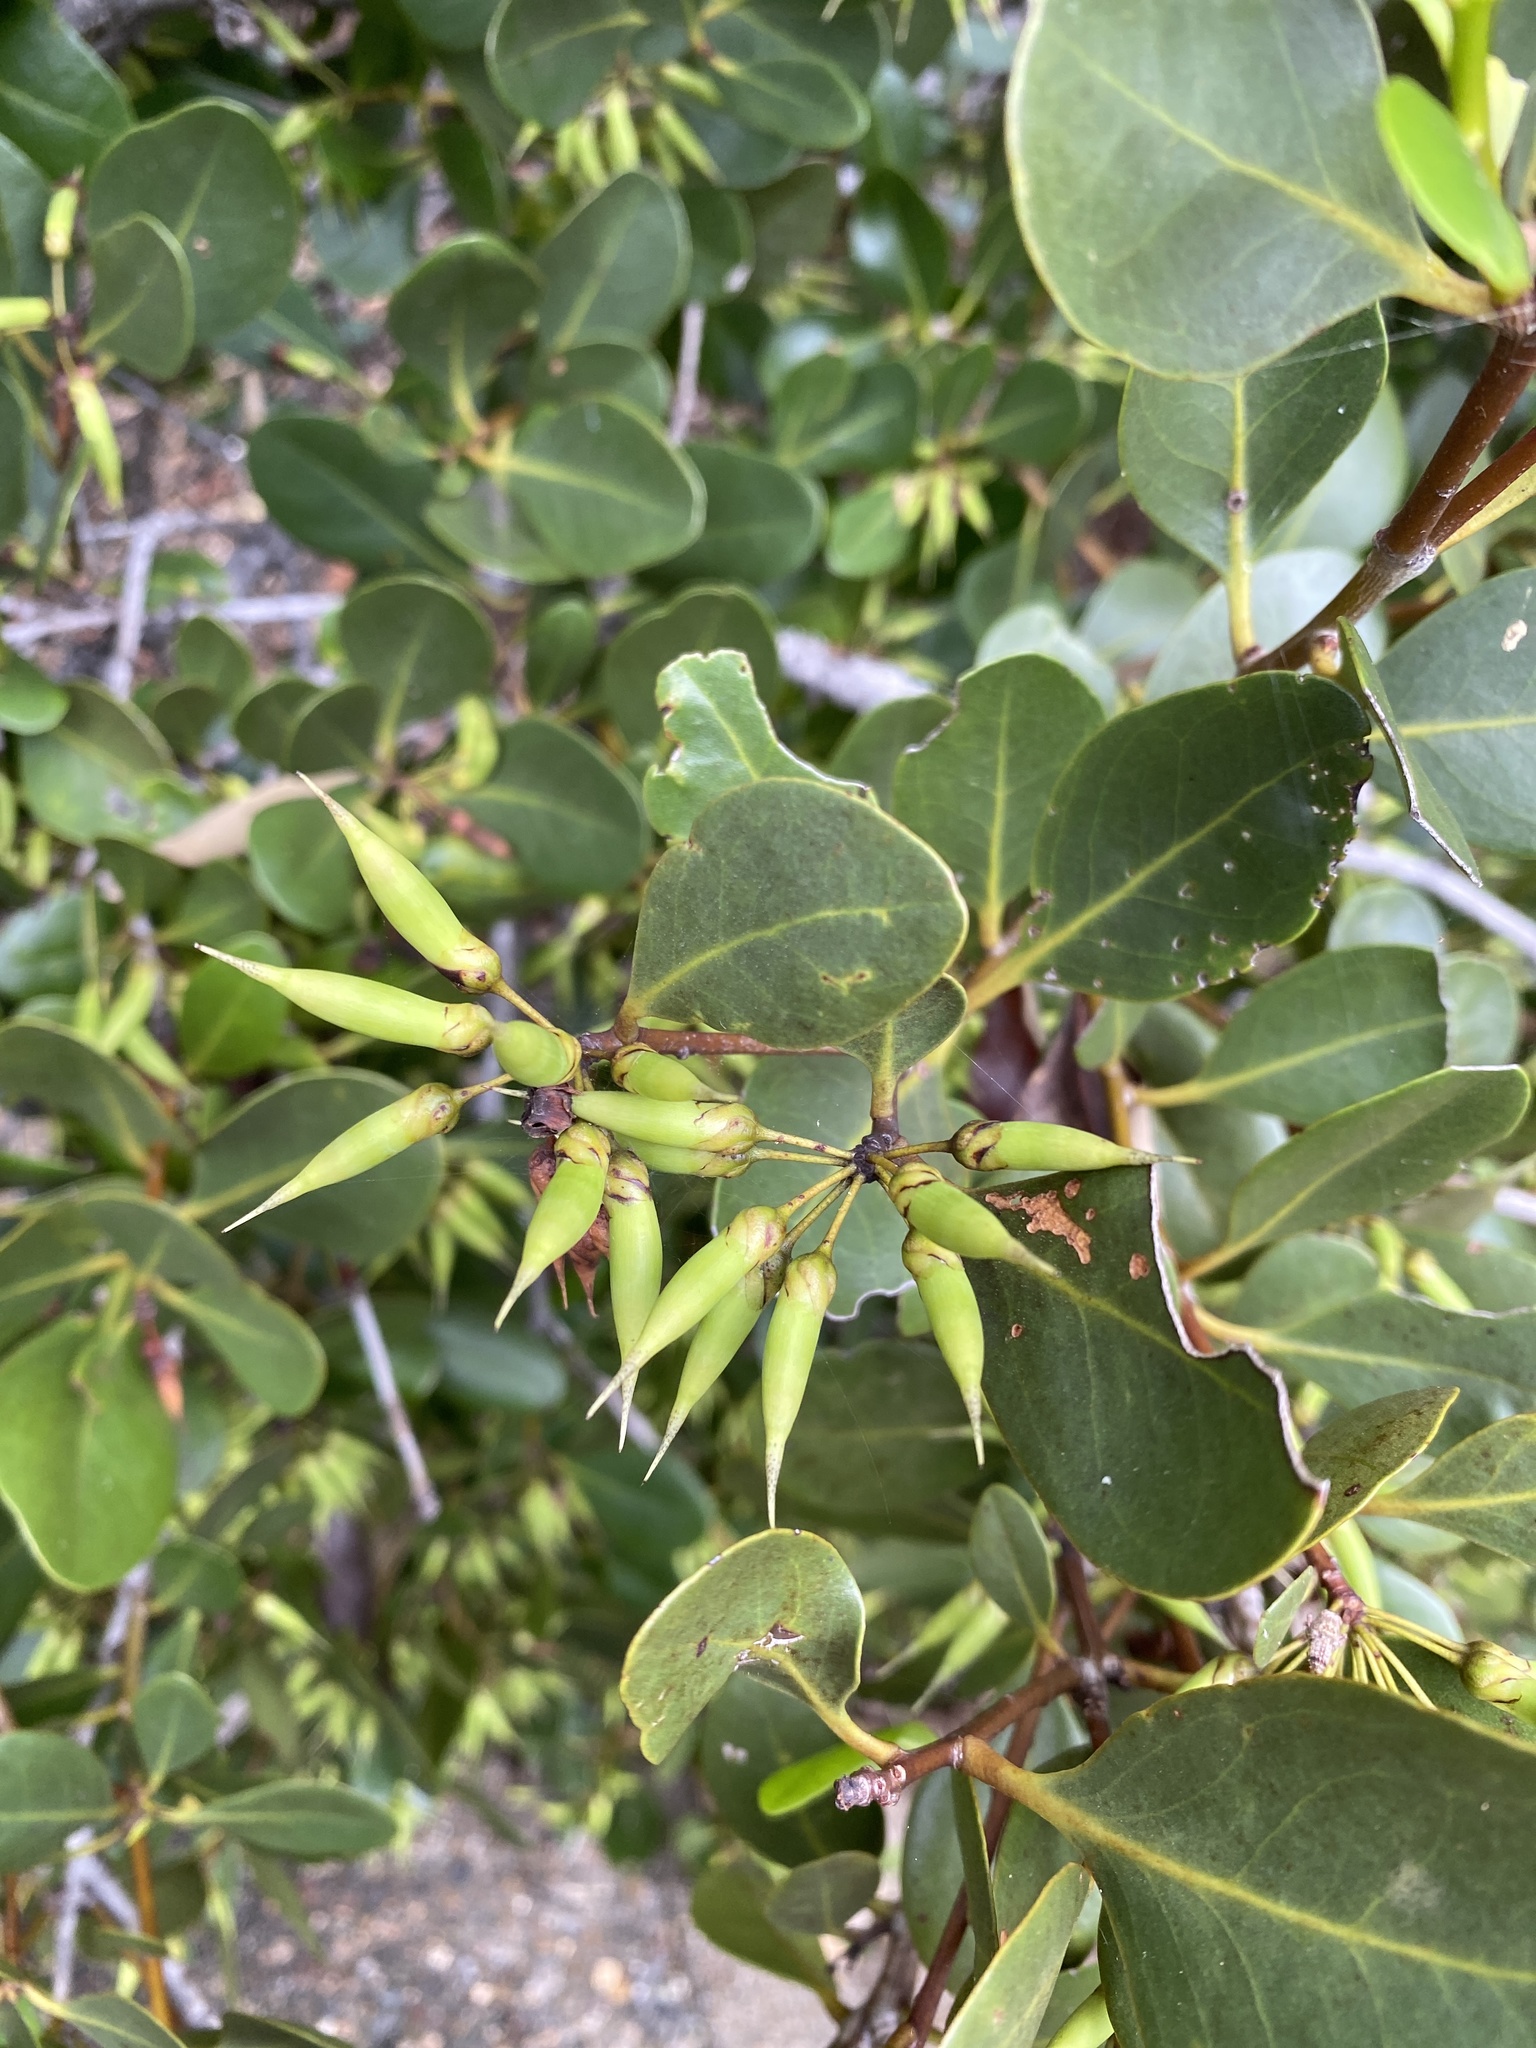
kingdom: Plantae
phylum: Tracheophyta
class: Magnoliopsida
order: Ericales
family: Primulaceae
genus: Aegiceras
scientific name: Aegiceras corniculatum
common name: River mangrove
